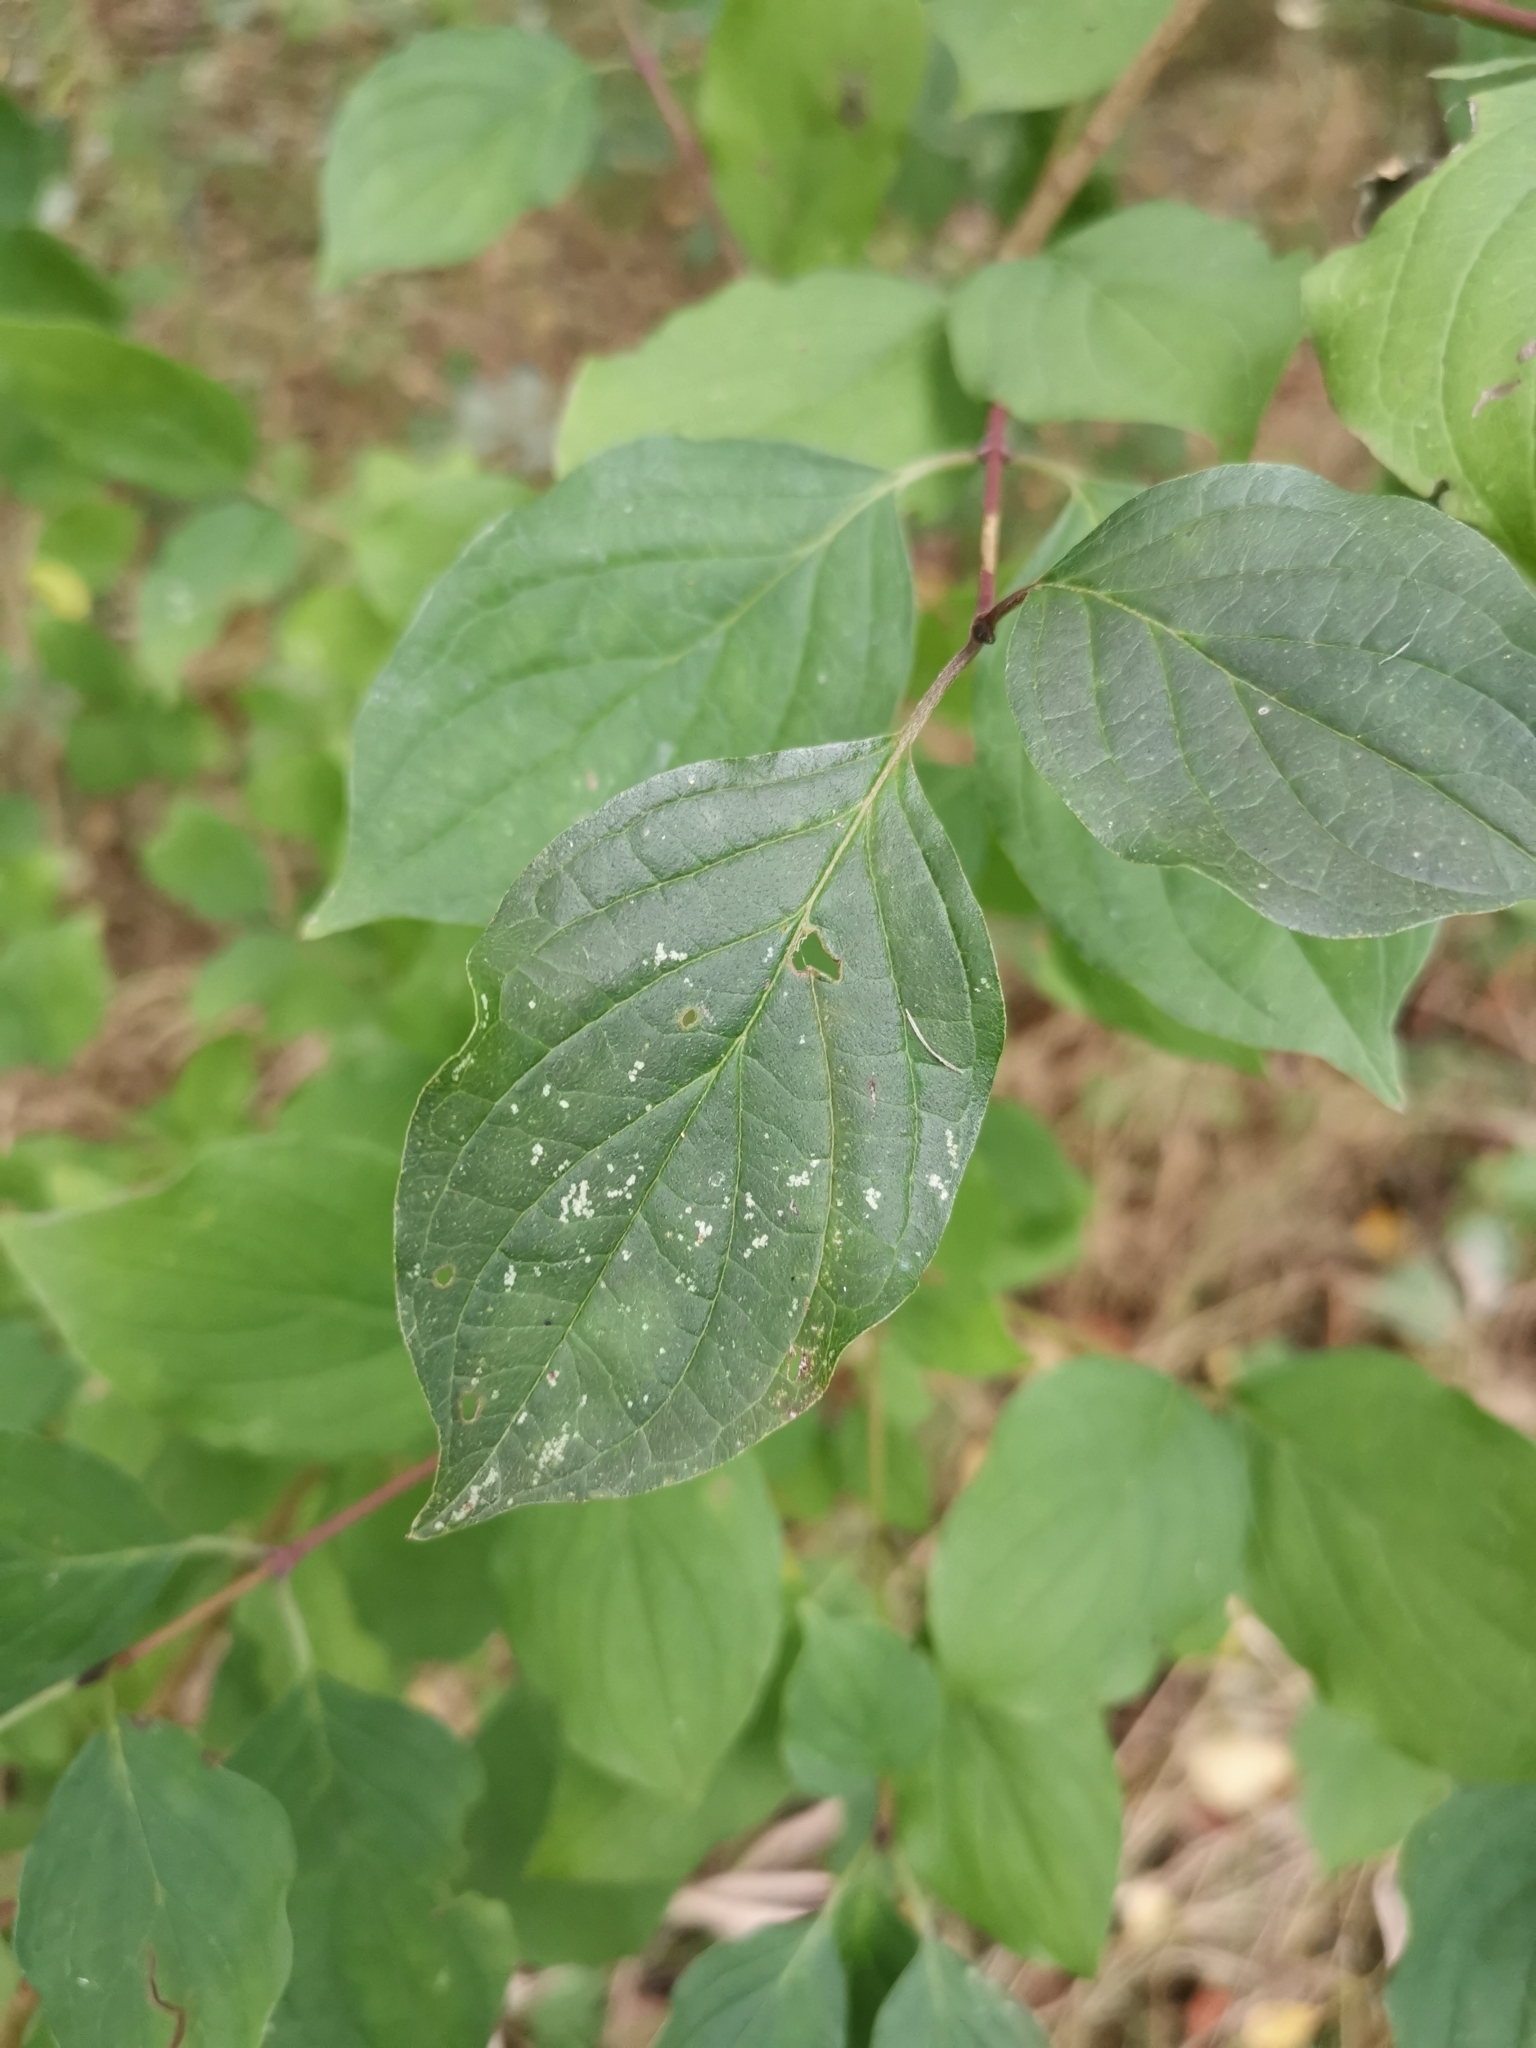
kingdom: Plantae
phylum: Tracheophyta
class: Magnoliopsida
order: Cornales
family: Cornaceae
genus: Cornus
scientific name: Cornus sanguinea
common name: Dogwood
